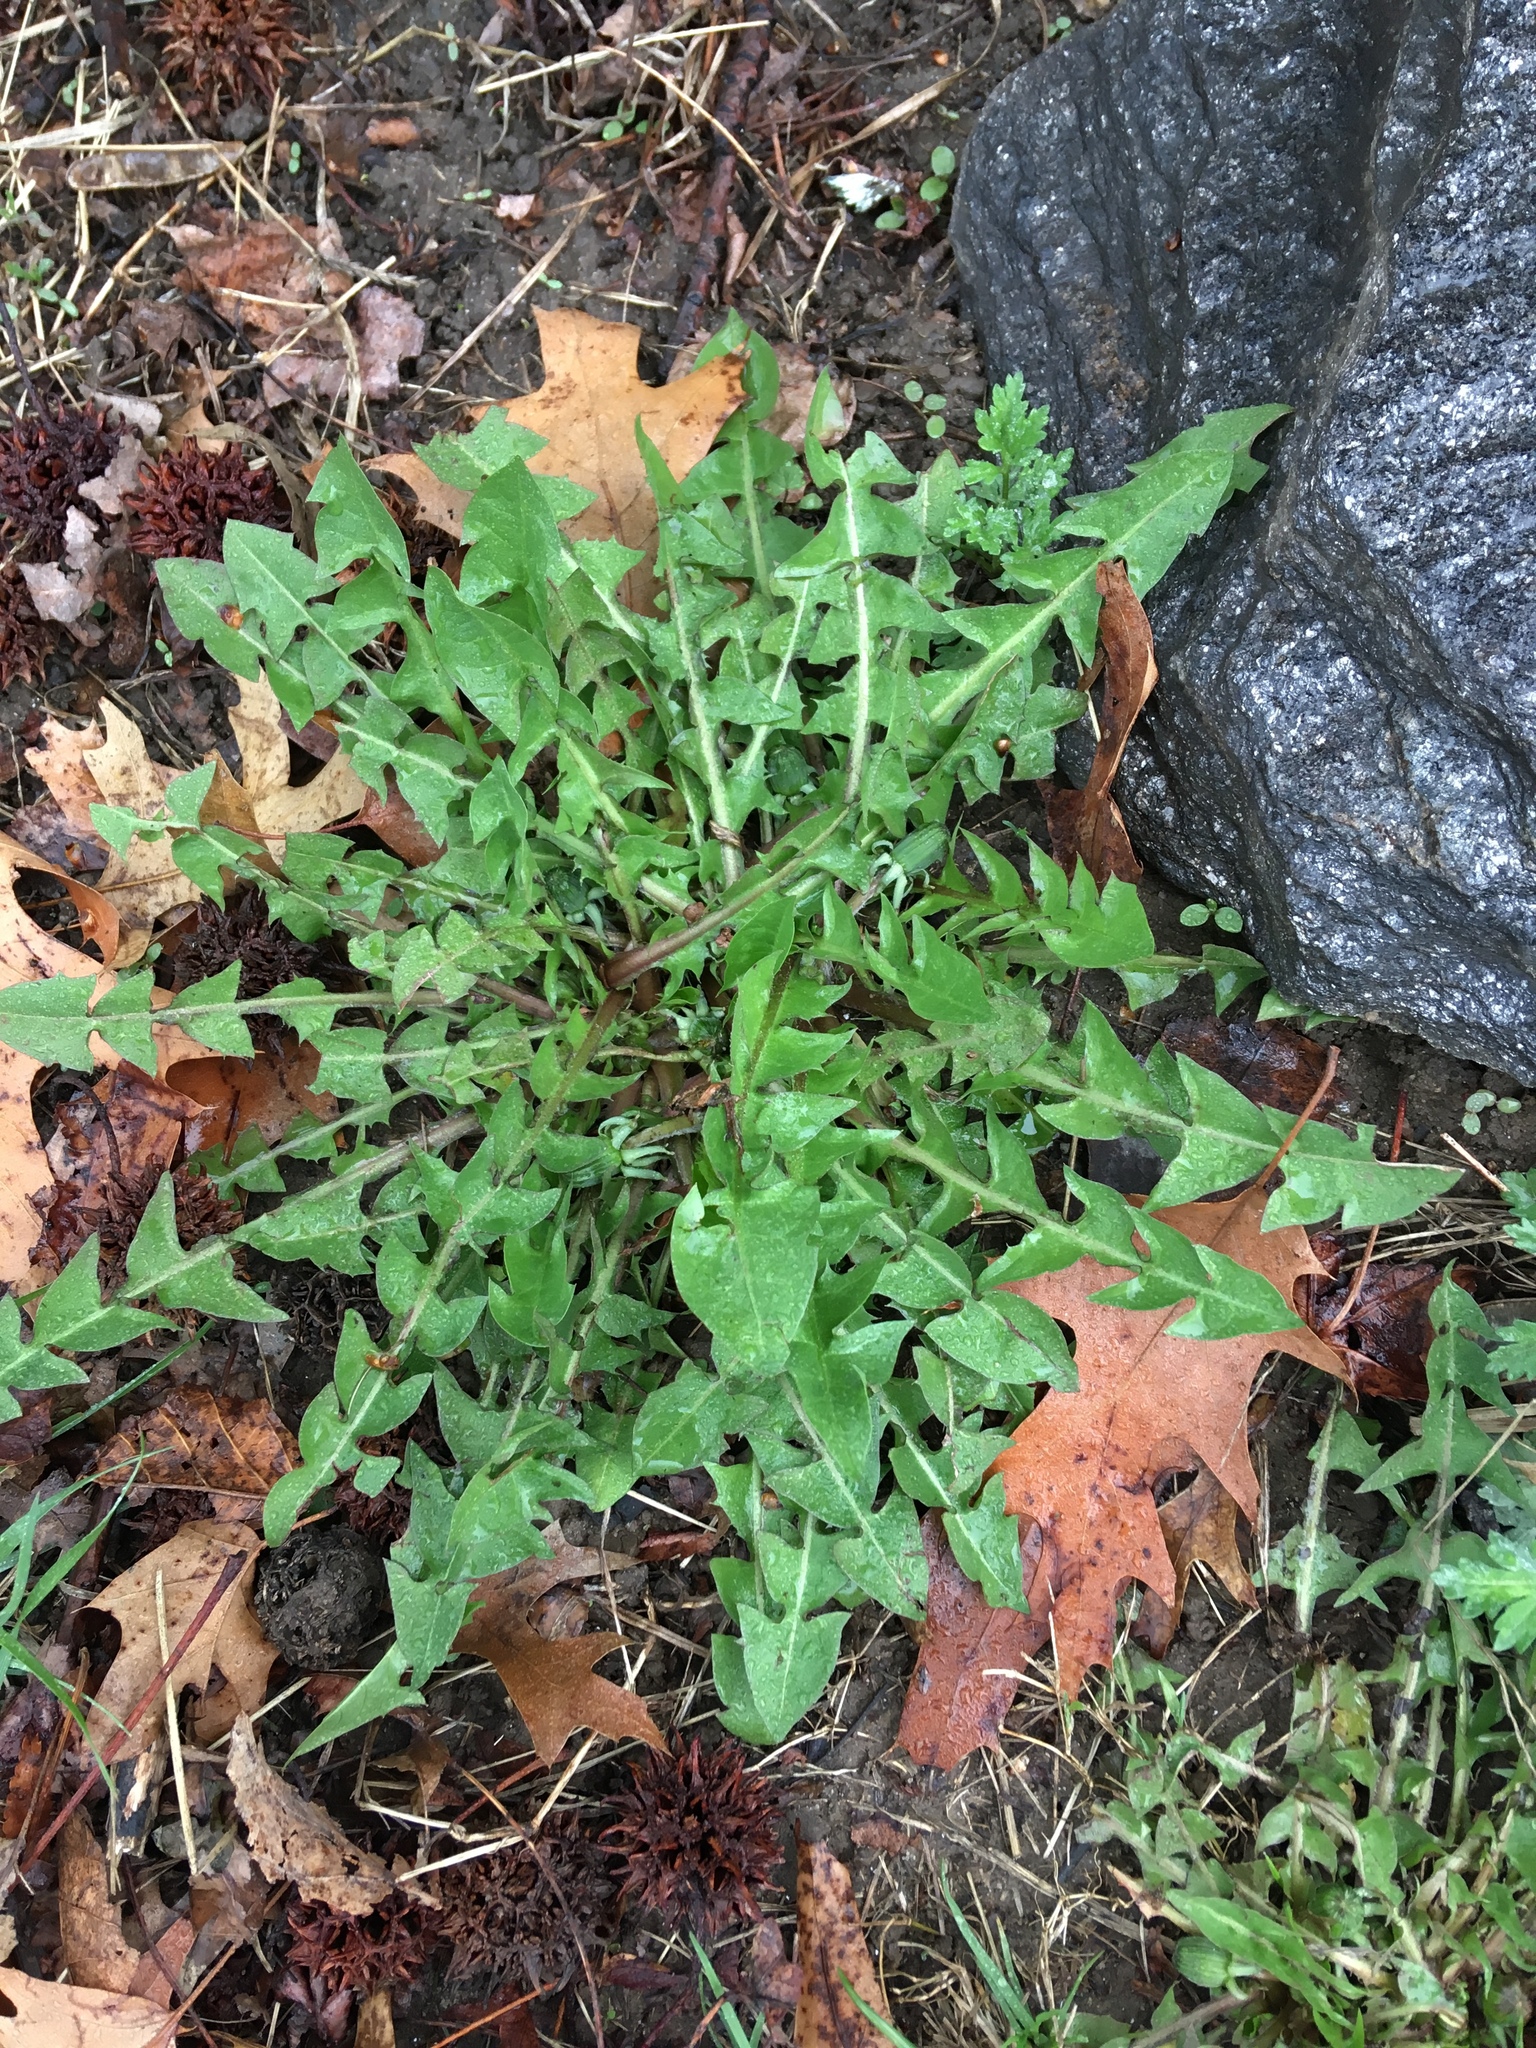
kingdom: Plantae
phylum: Tracheophyta
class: Magnoliopsida
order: Asterales
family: Asteraceae
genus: Taraxacum
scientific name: Taraxacum officinale
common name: Common dandelion
